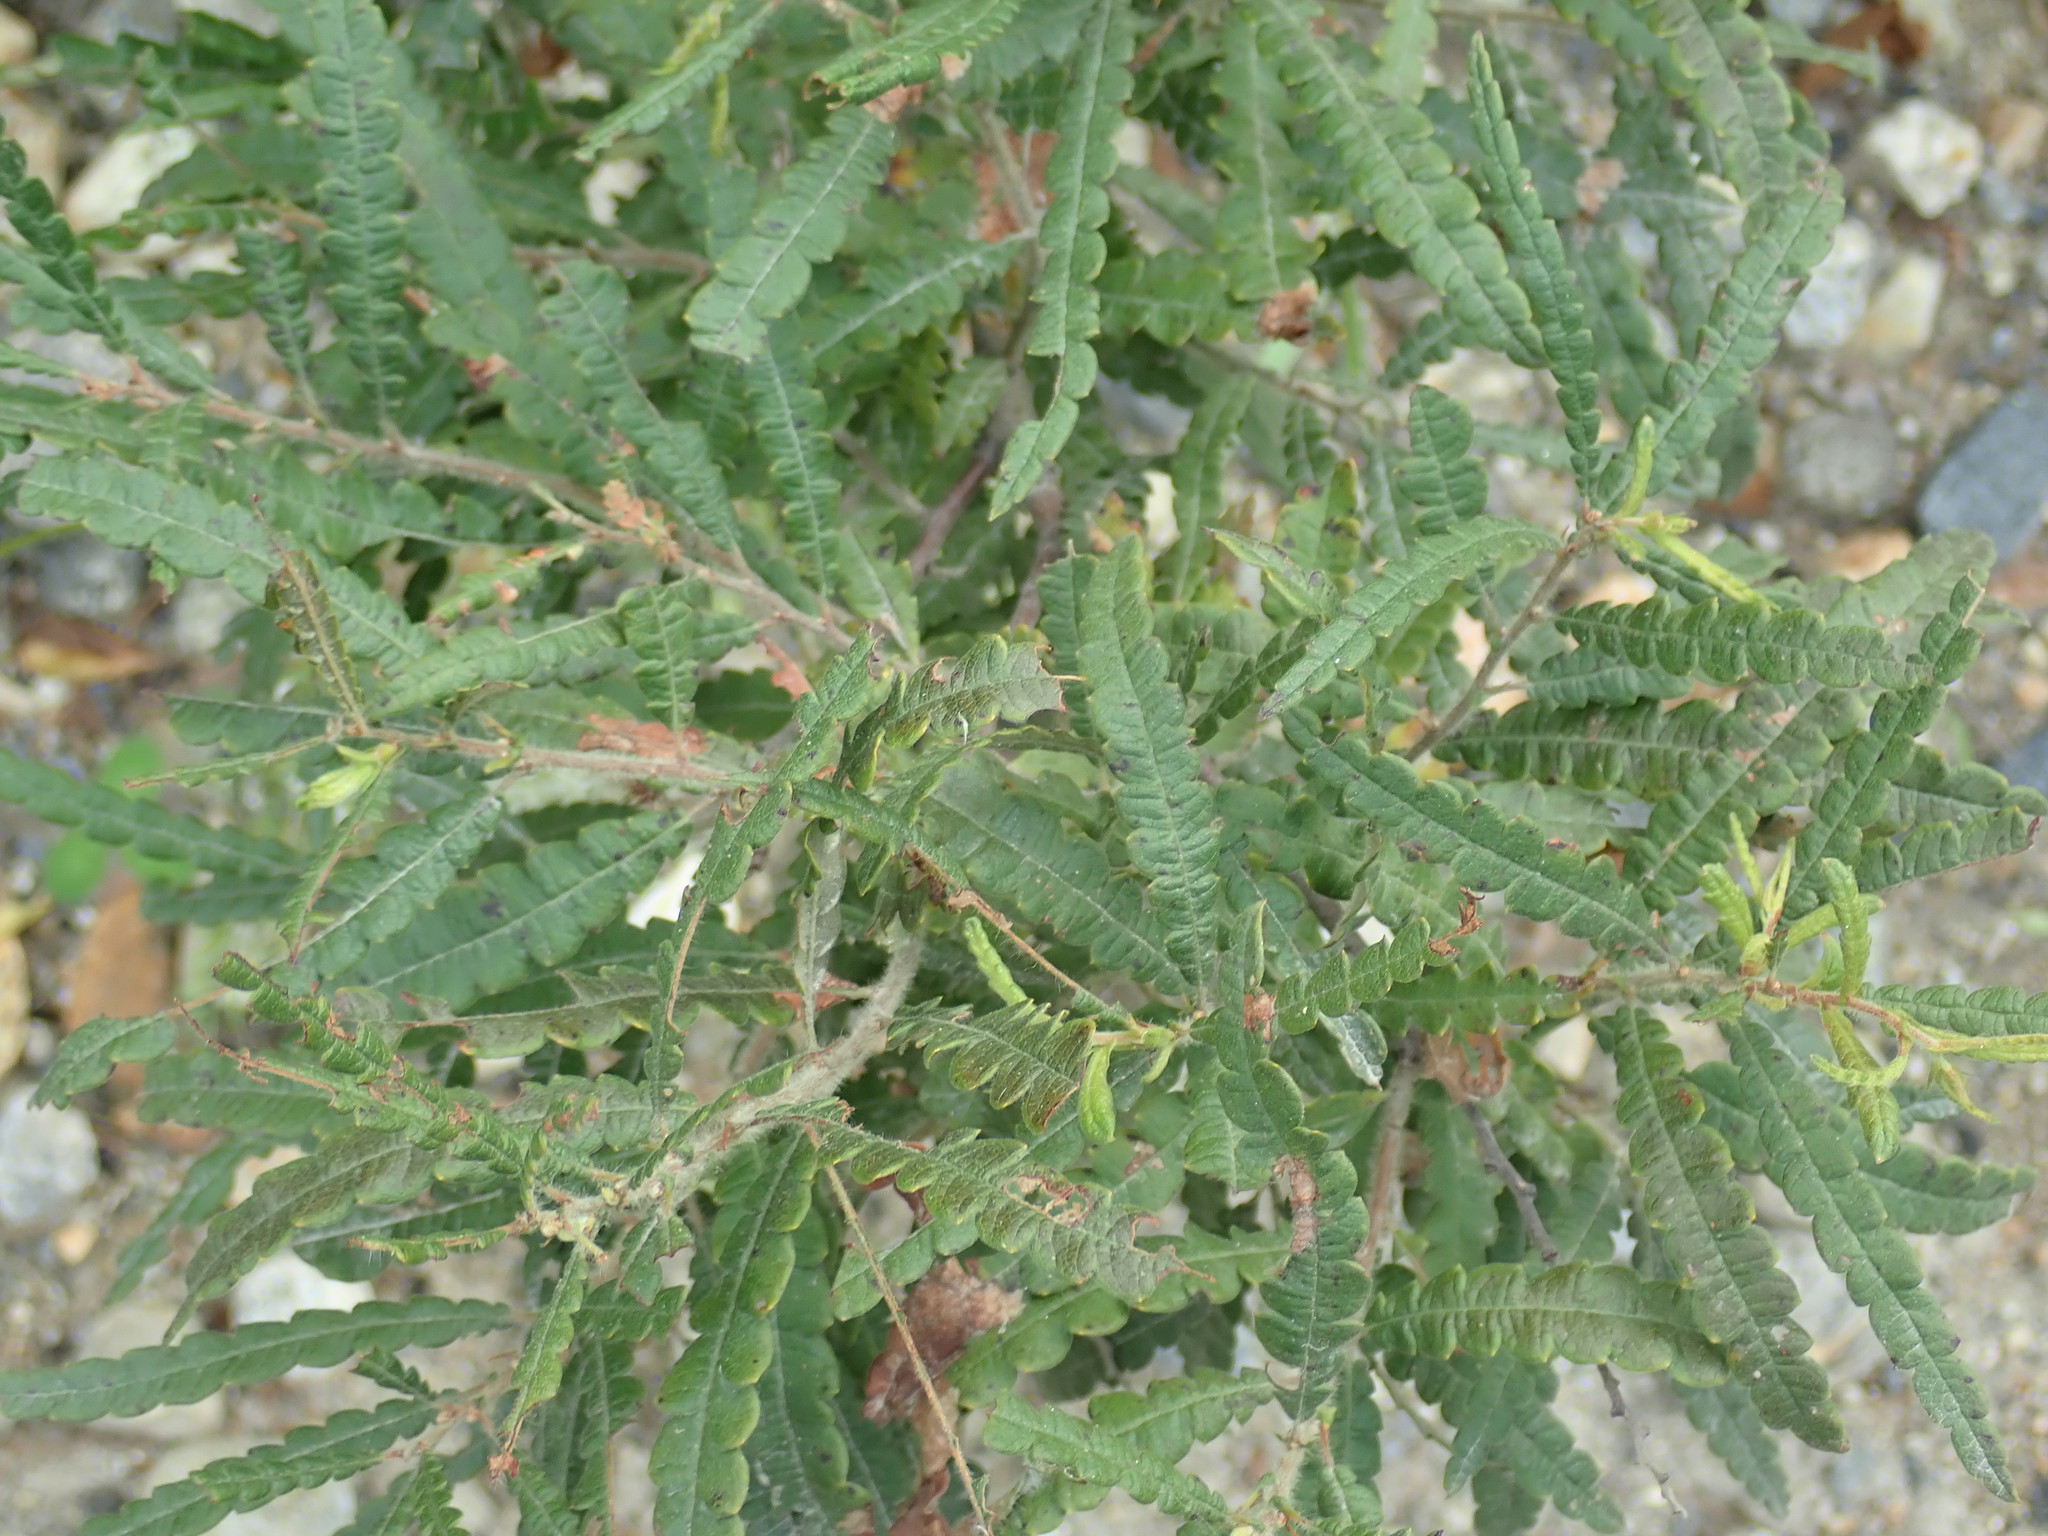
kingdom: Plantae
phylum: Tracheophyta
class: Magnoliopsida
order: Fagales
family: Myricaceae
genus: Comptonia
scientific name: Comptonia peregrina
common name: Sweet-fern
